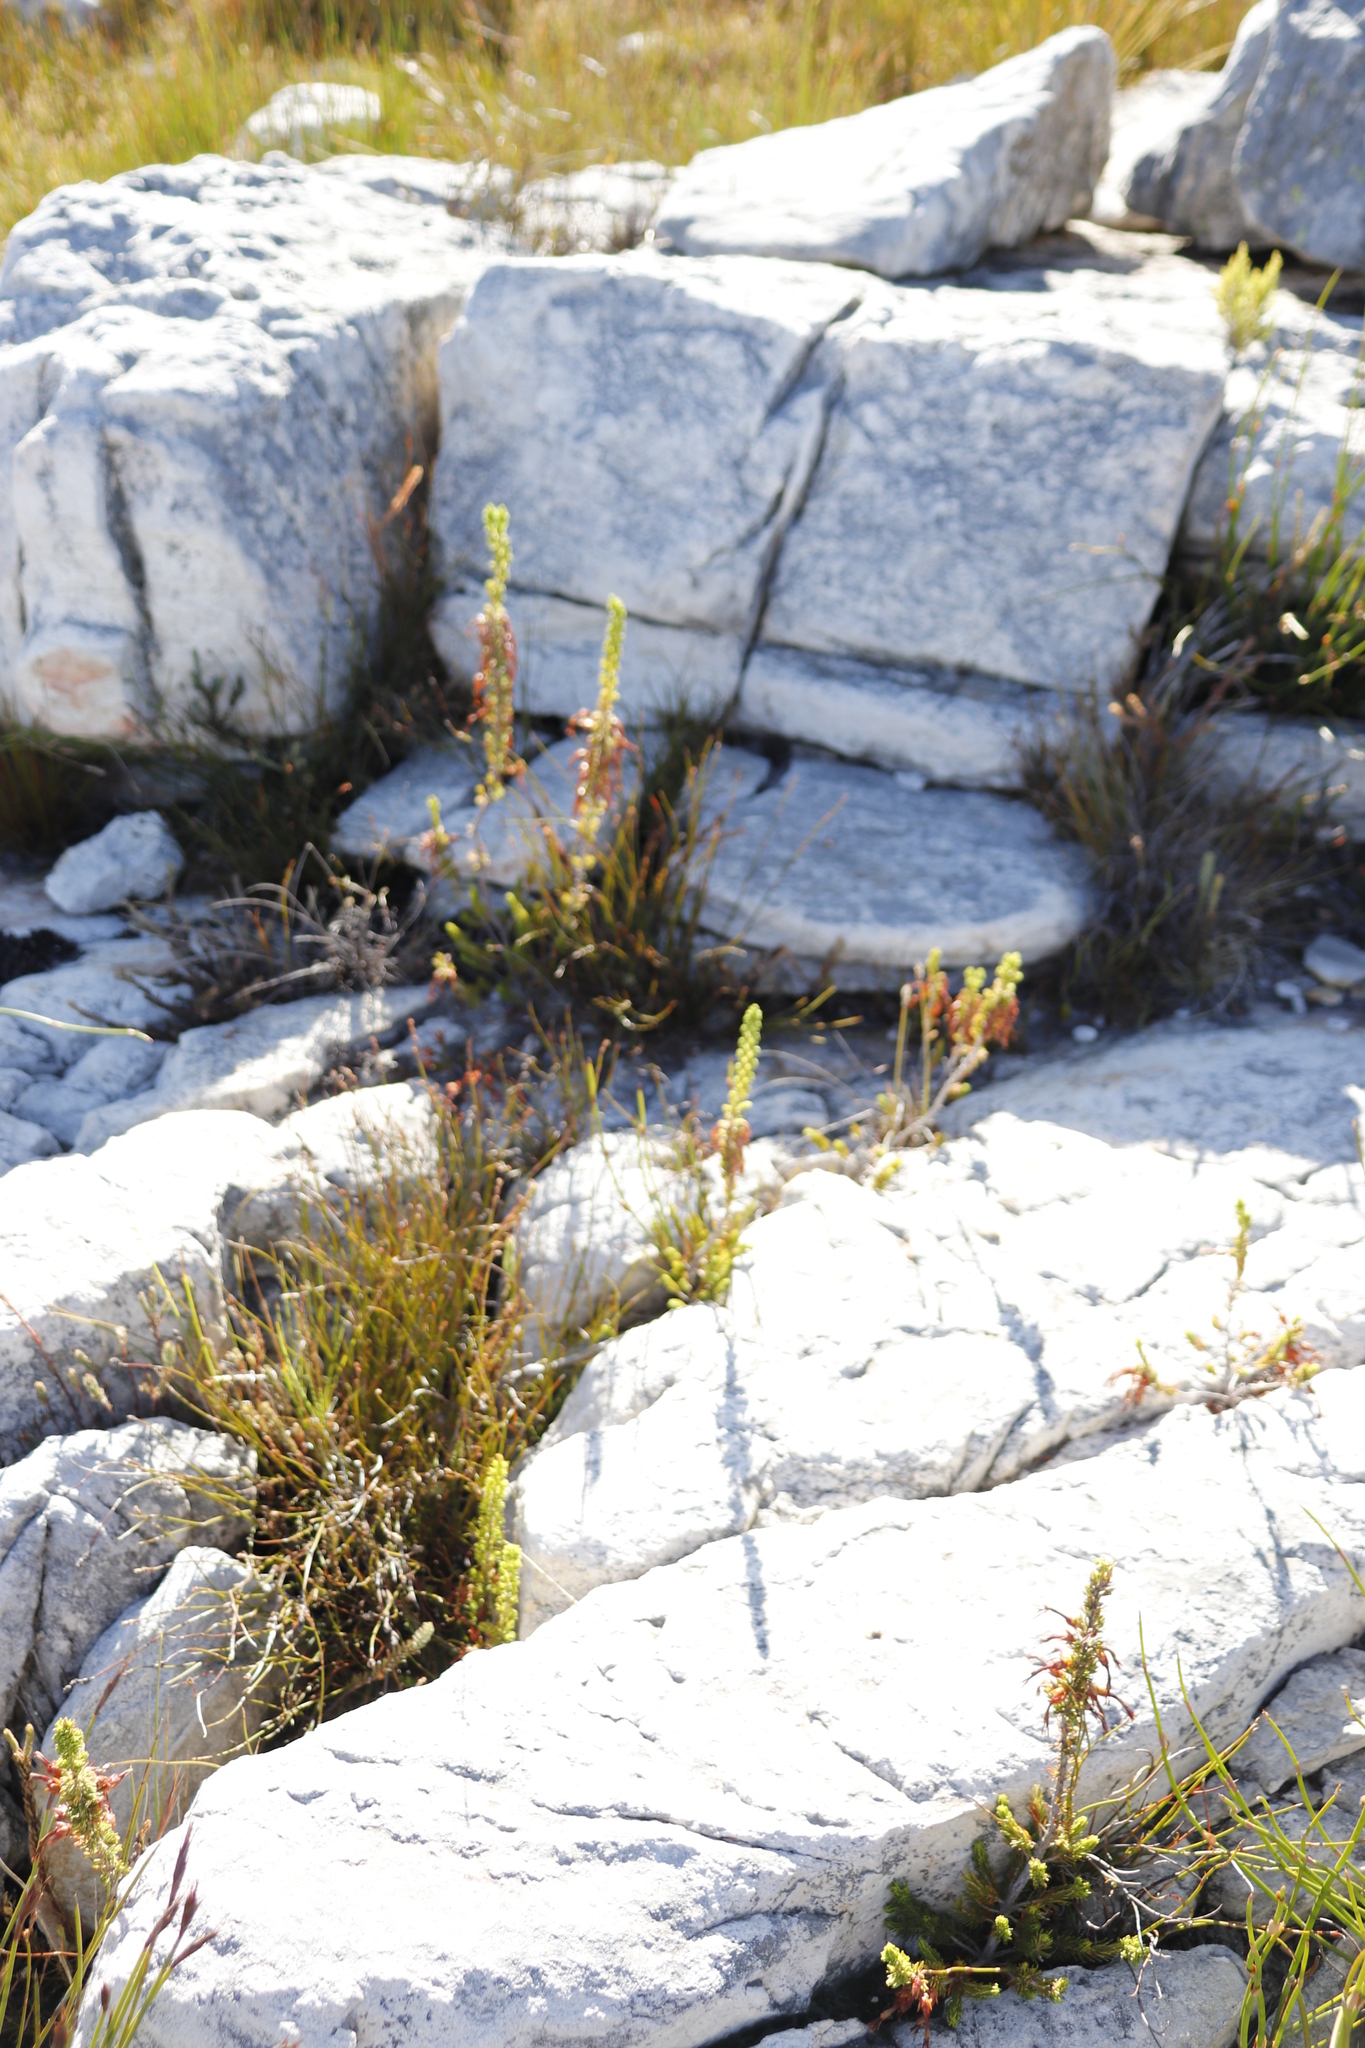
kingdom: Plantae
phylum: Tracheophyta
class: Magnoliopsida
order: Ericales
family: Ericaceae
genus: Erica
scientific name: Erica melastoma
